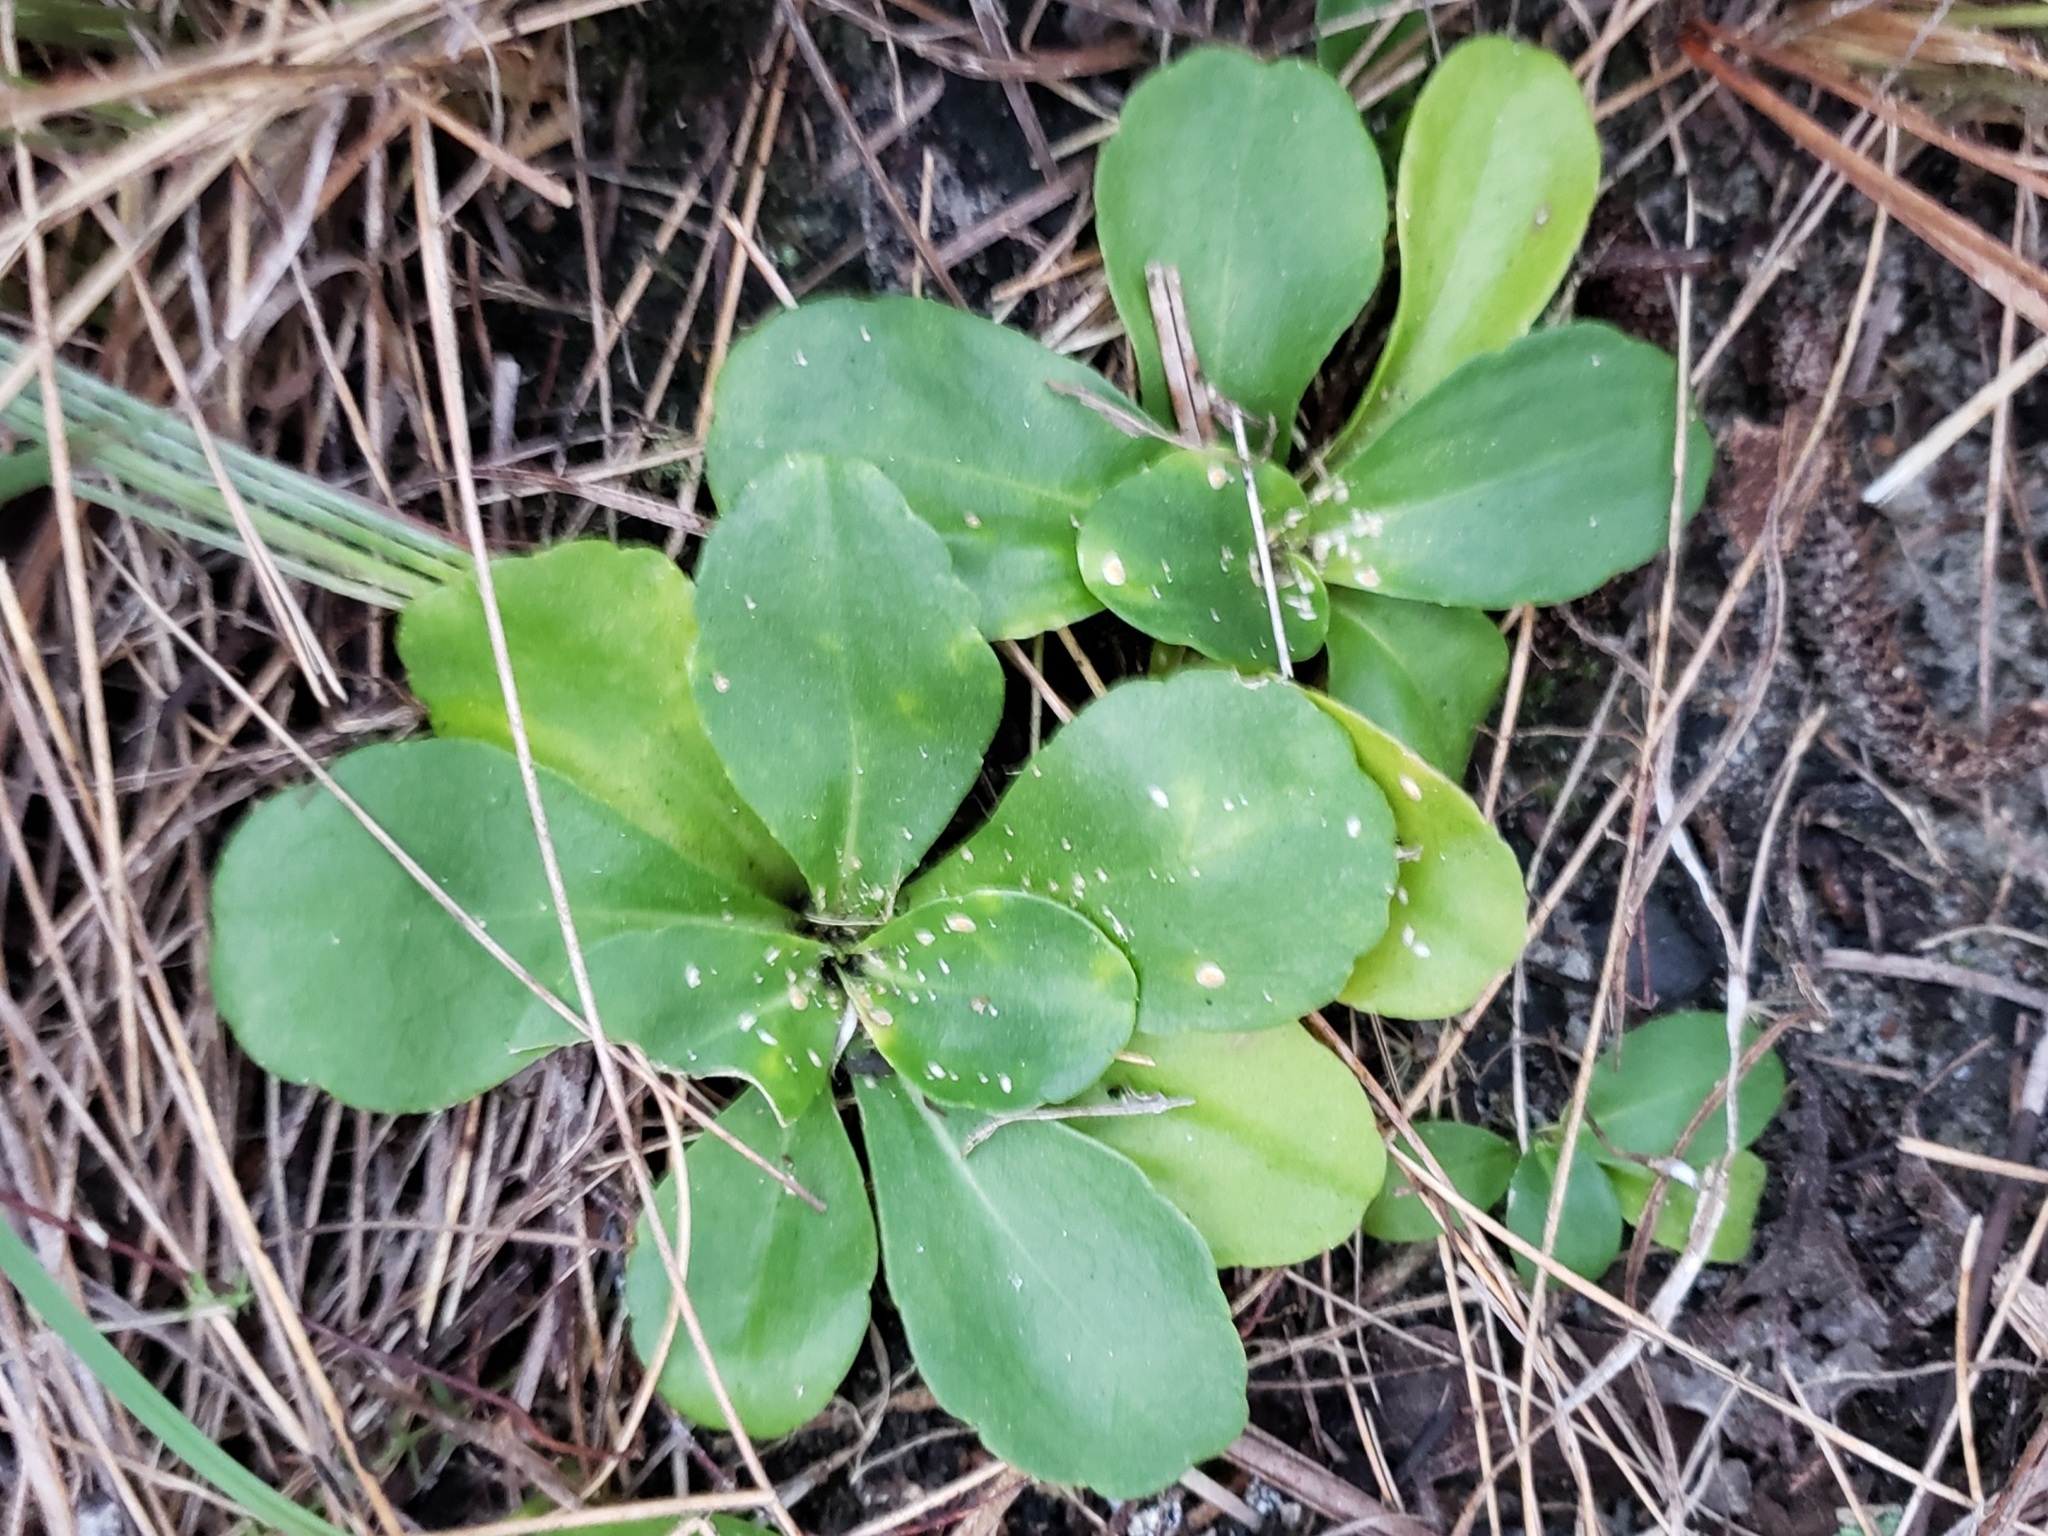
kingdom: Plantae
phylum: Tracheophyta
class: Magnoliopsida
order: Asterales
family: Asteraceae
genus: Erigeron
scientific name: Erigeron vernus
